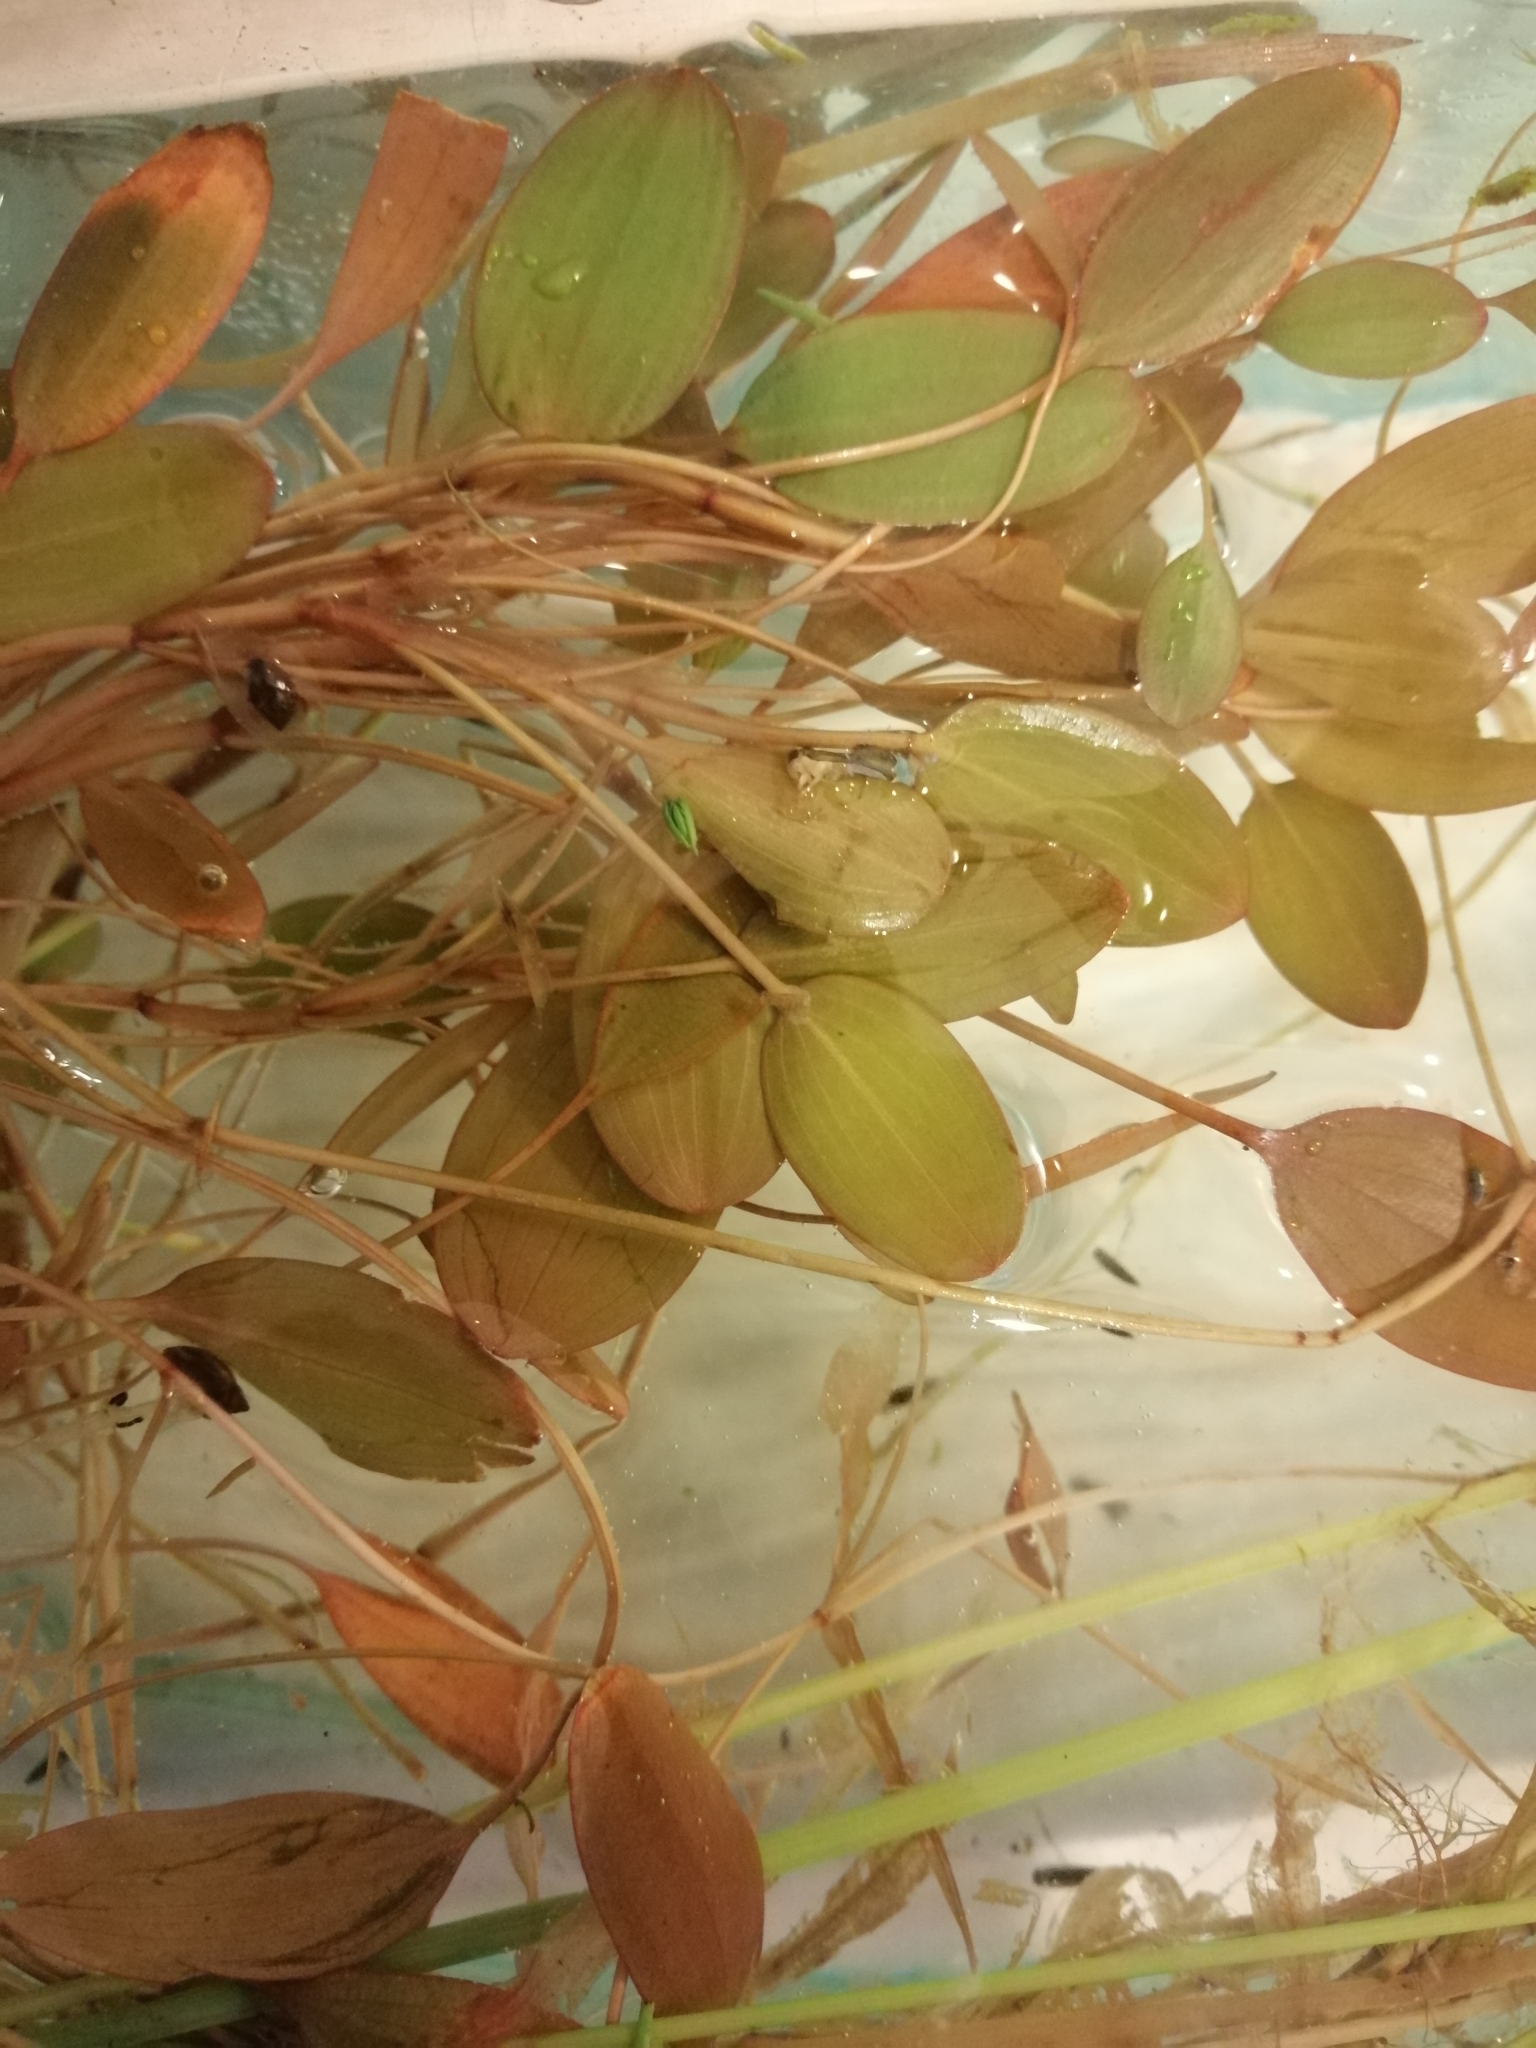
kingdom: Plantae
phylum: Tracheophyta
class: Liliopsida
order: Alismatales
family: Potamogetonaceae
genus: Potamogeton
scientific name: Potamogeton cheesemanii
